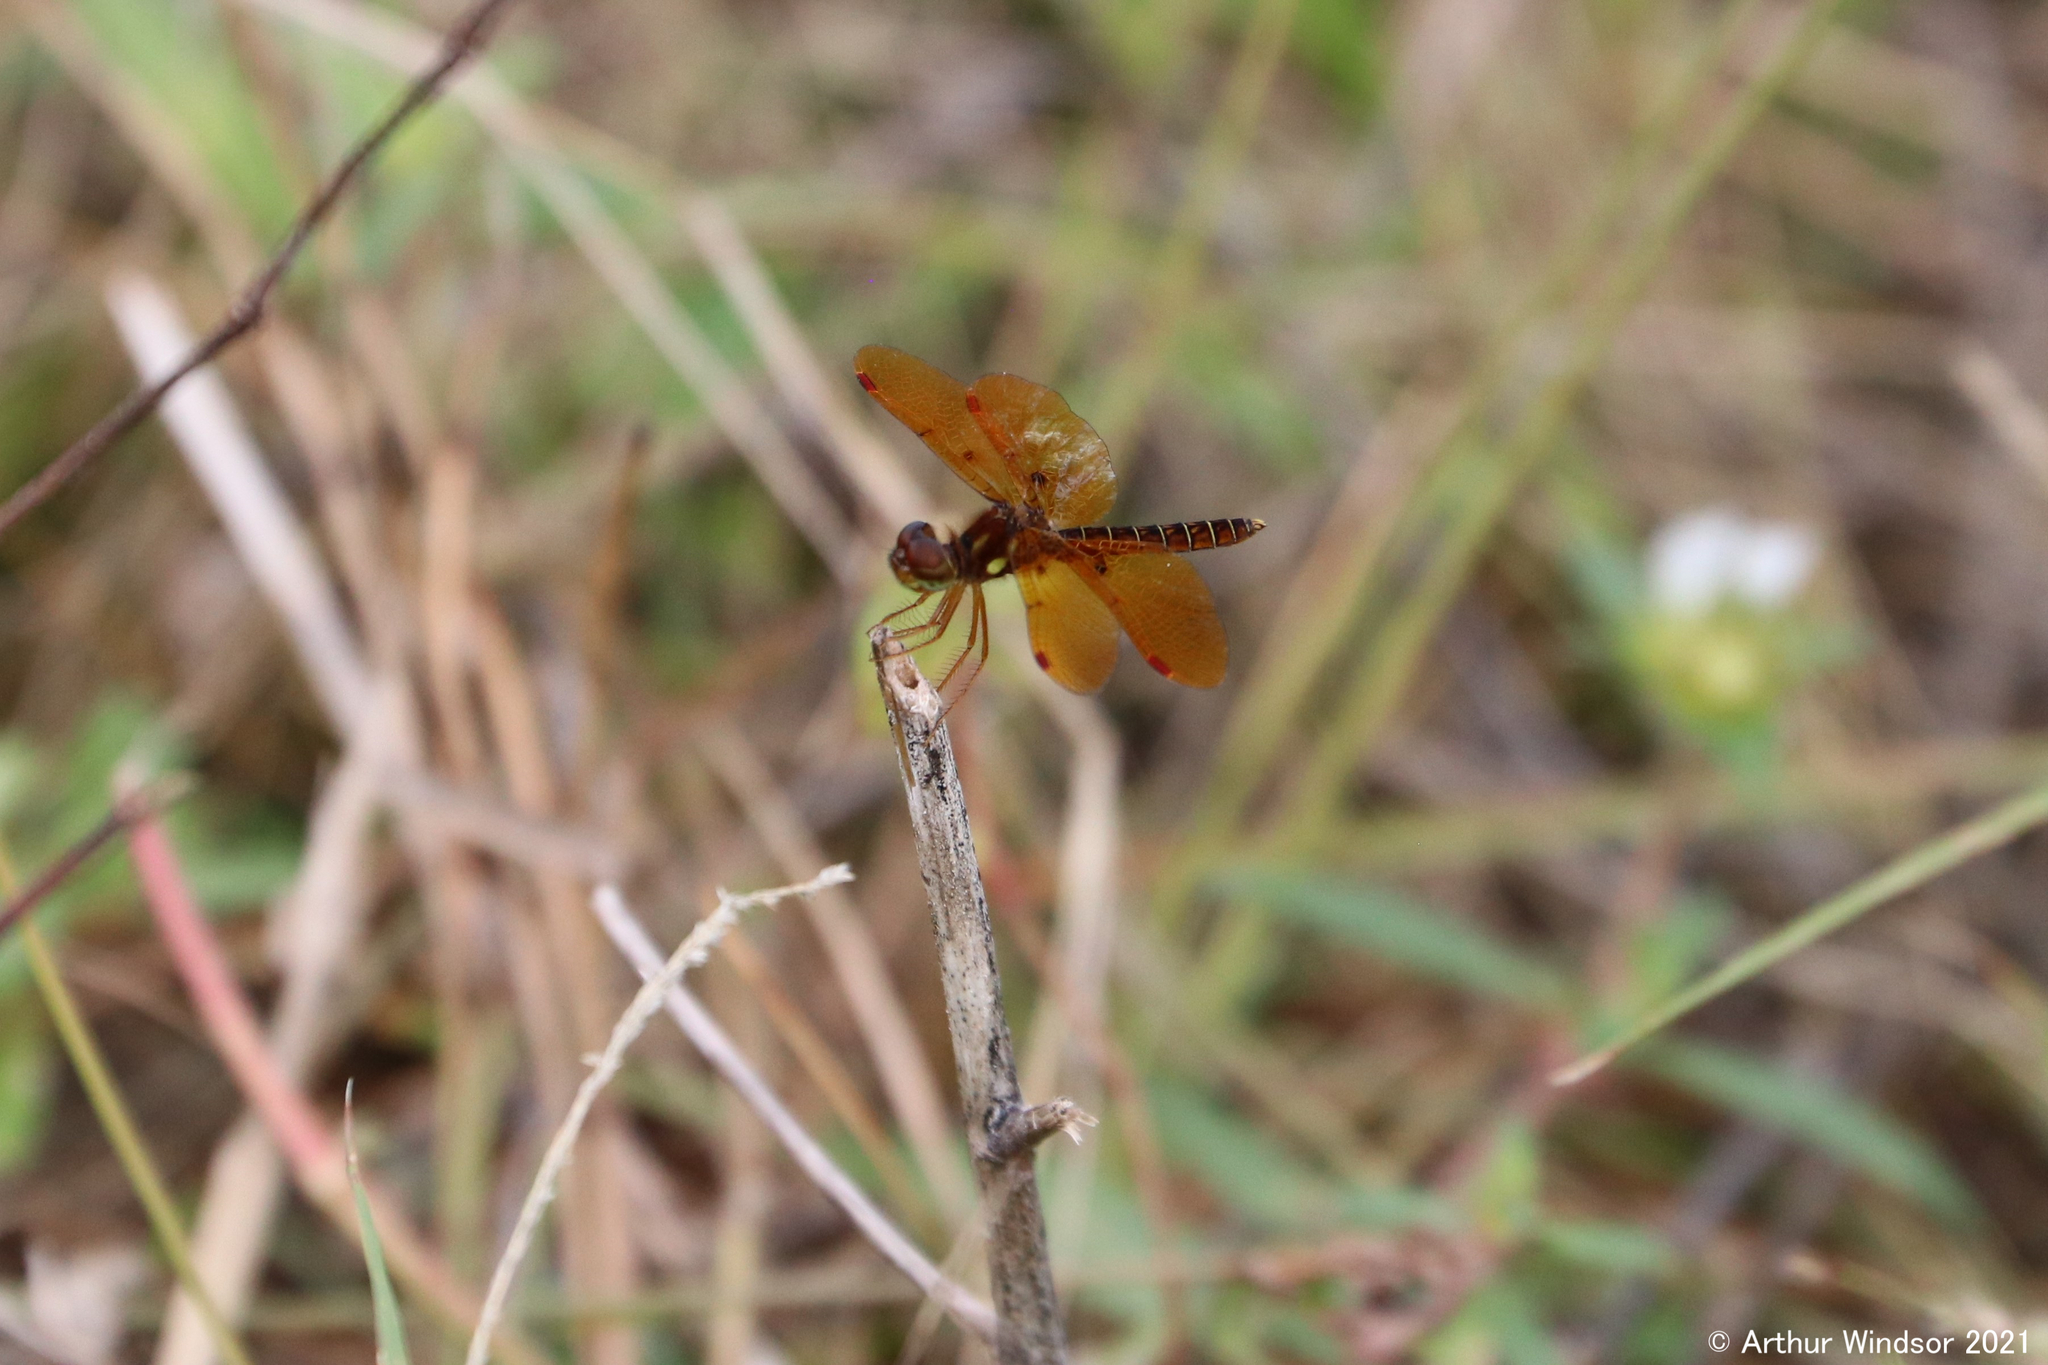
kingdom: Animalia
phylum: Arthropoda
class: Insecta
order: Odonata
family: Libellulidae
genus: Perithemis
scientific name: Perithemis tenera
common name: Eastern amberwing
